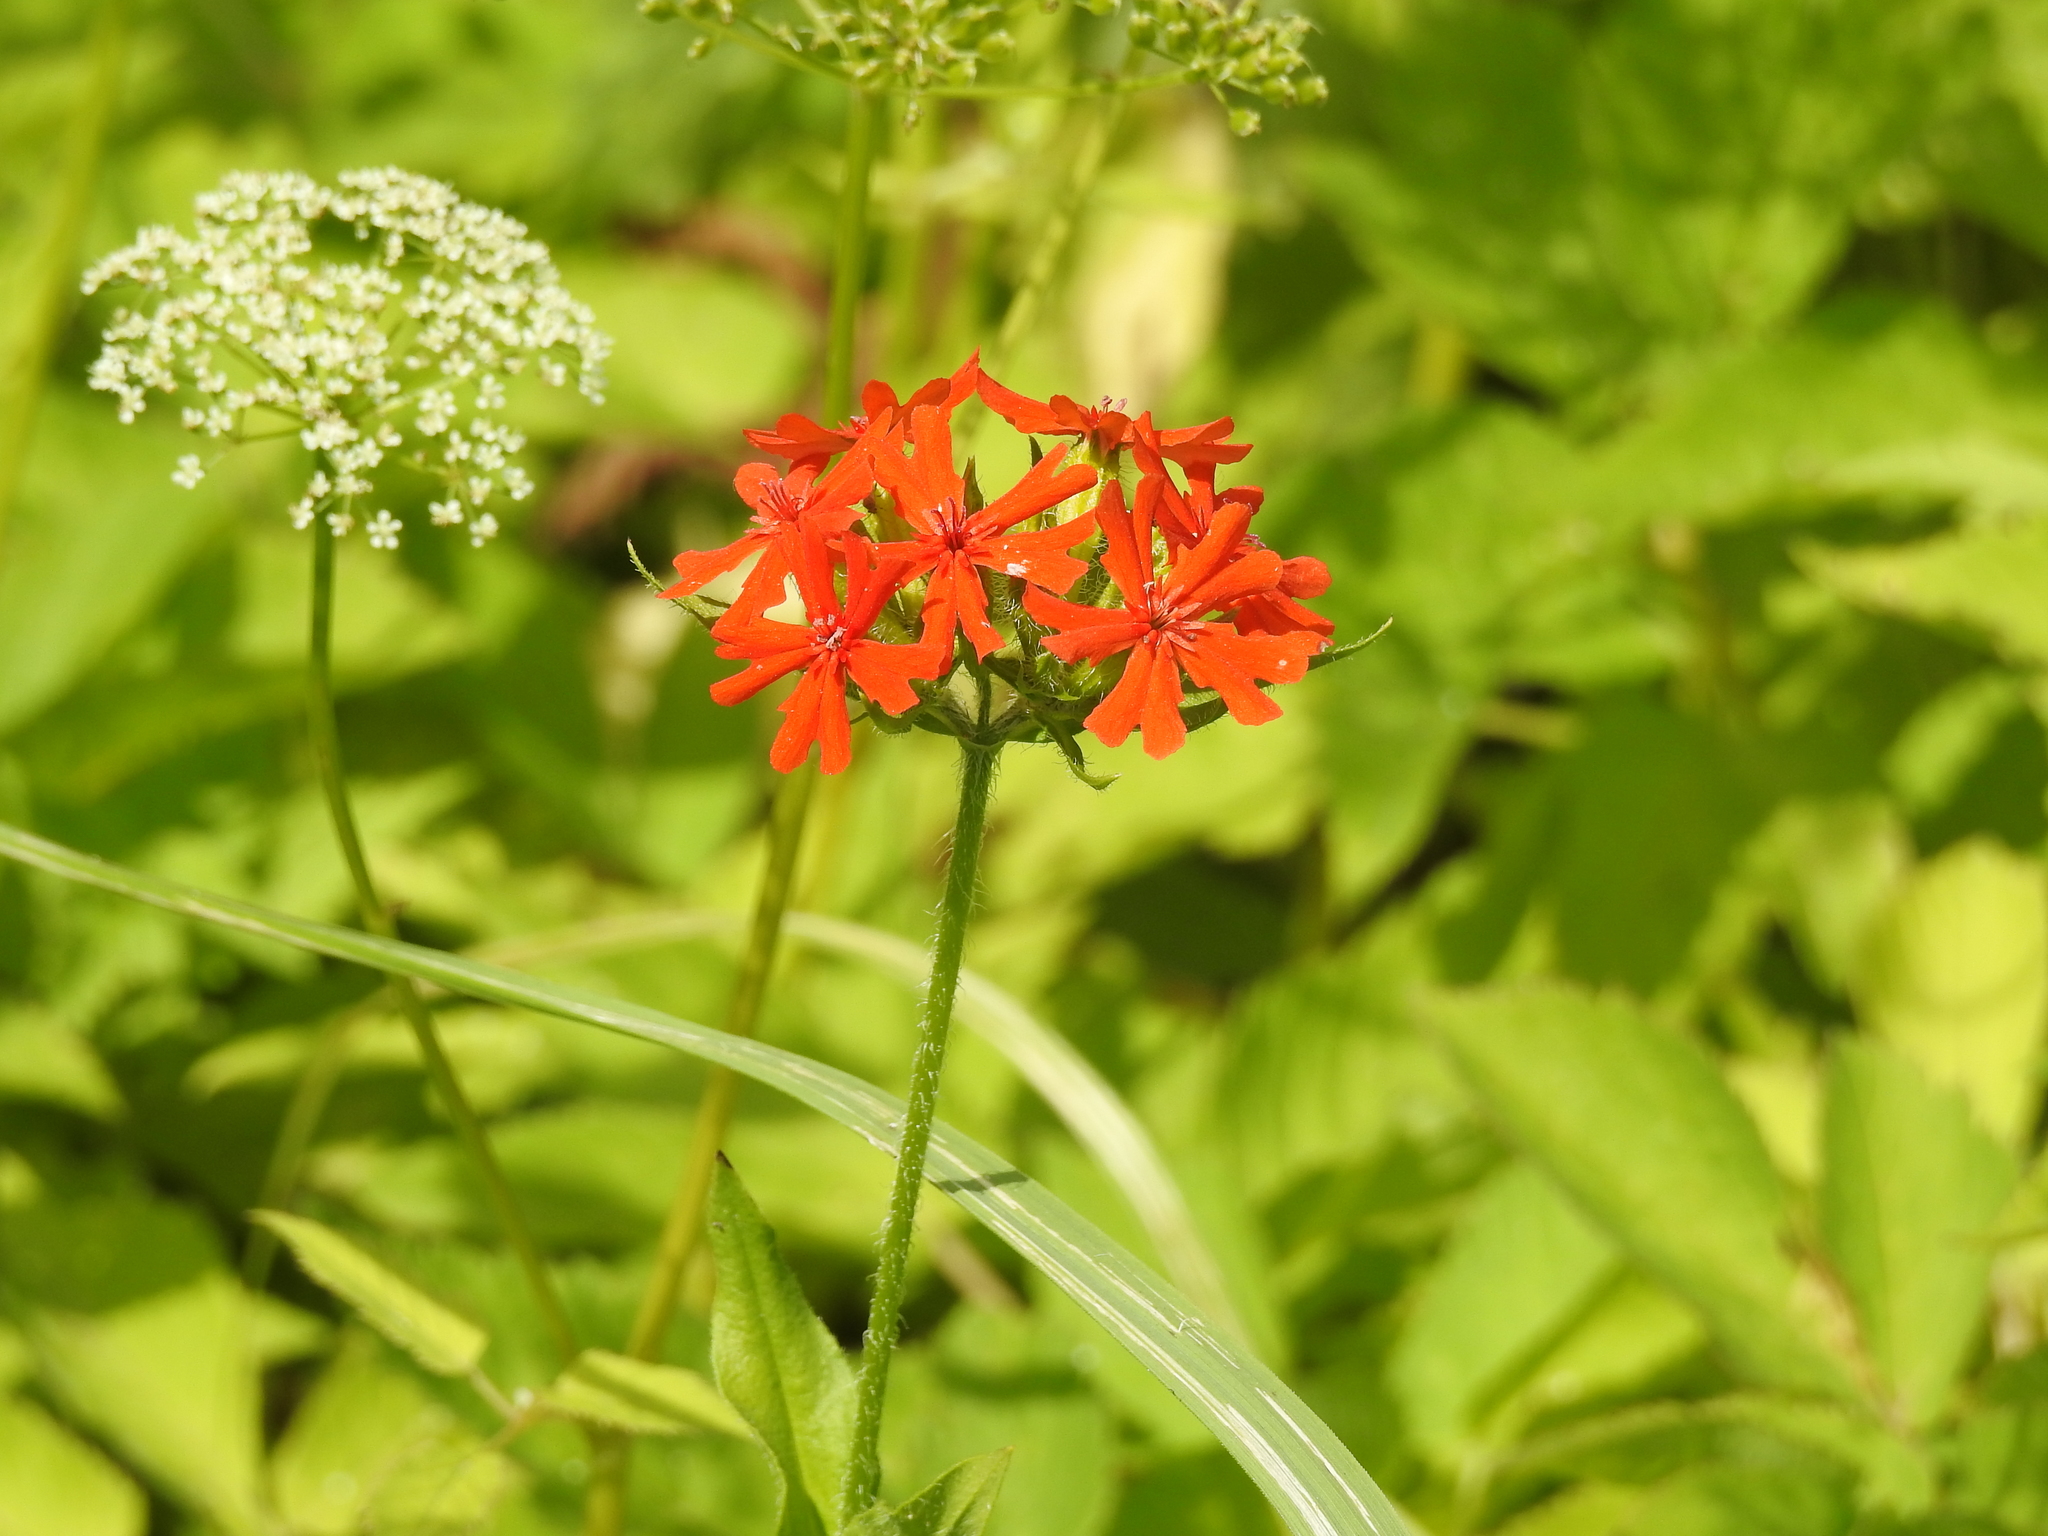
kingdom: Plantae
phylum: Tracheophyta
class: Magnoliopsida
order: Caryophyllales
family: Caryophyllaceae
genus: Silene
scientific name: Silene chalcedonica
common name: Maltese-cross
